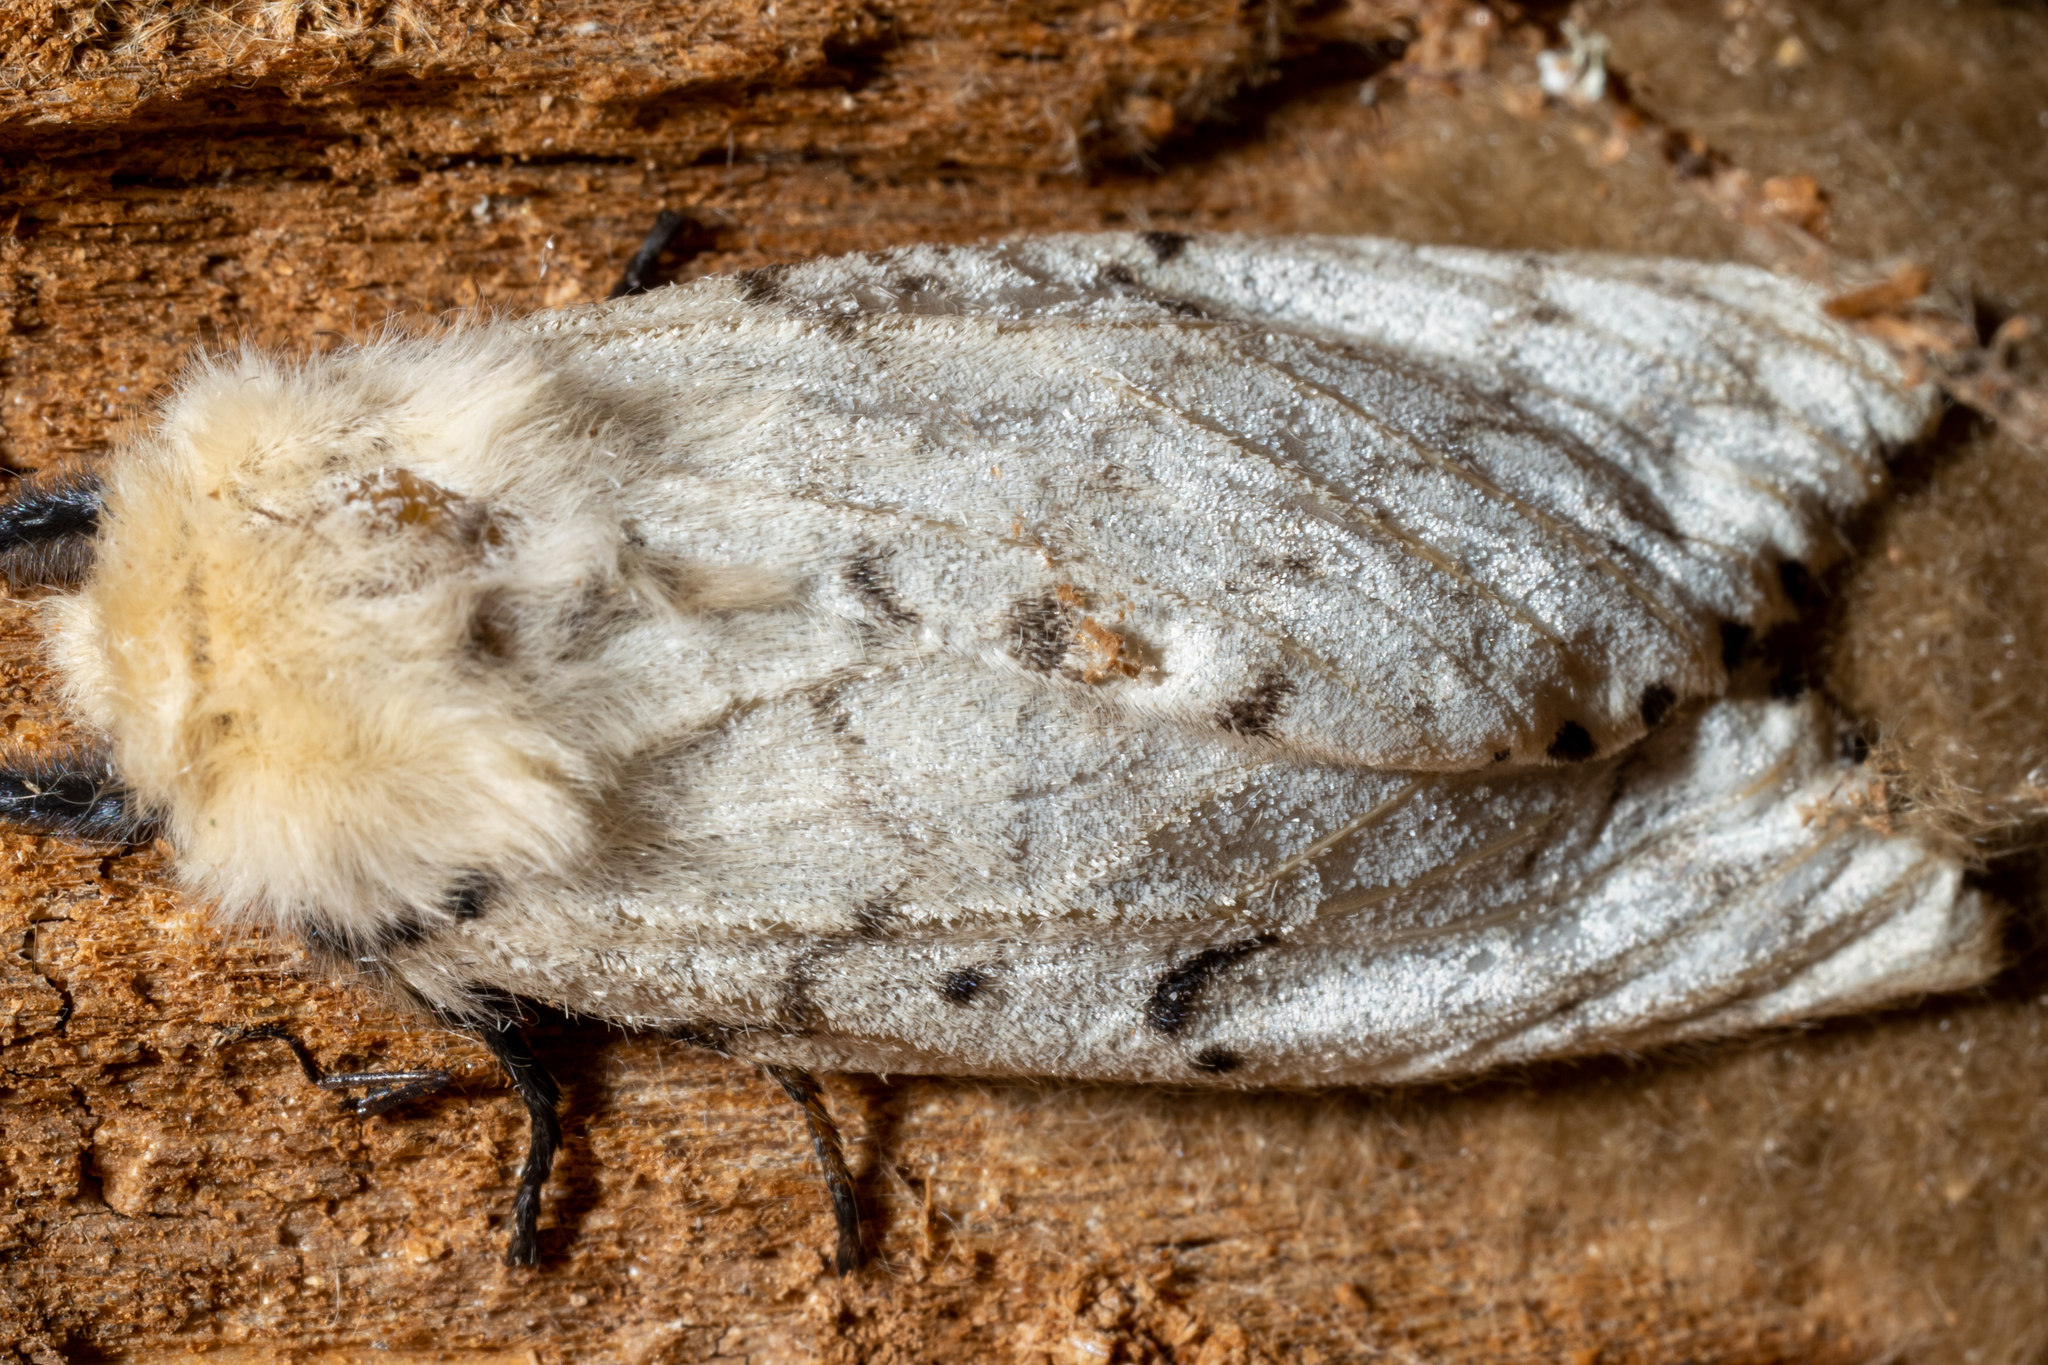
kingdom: Animalia
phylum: Arthropoda
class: Insecta
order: Lepidoptera
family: Erebidae
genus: Lymantria
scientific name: Lymantria dispar
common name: Gypsy moth
